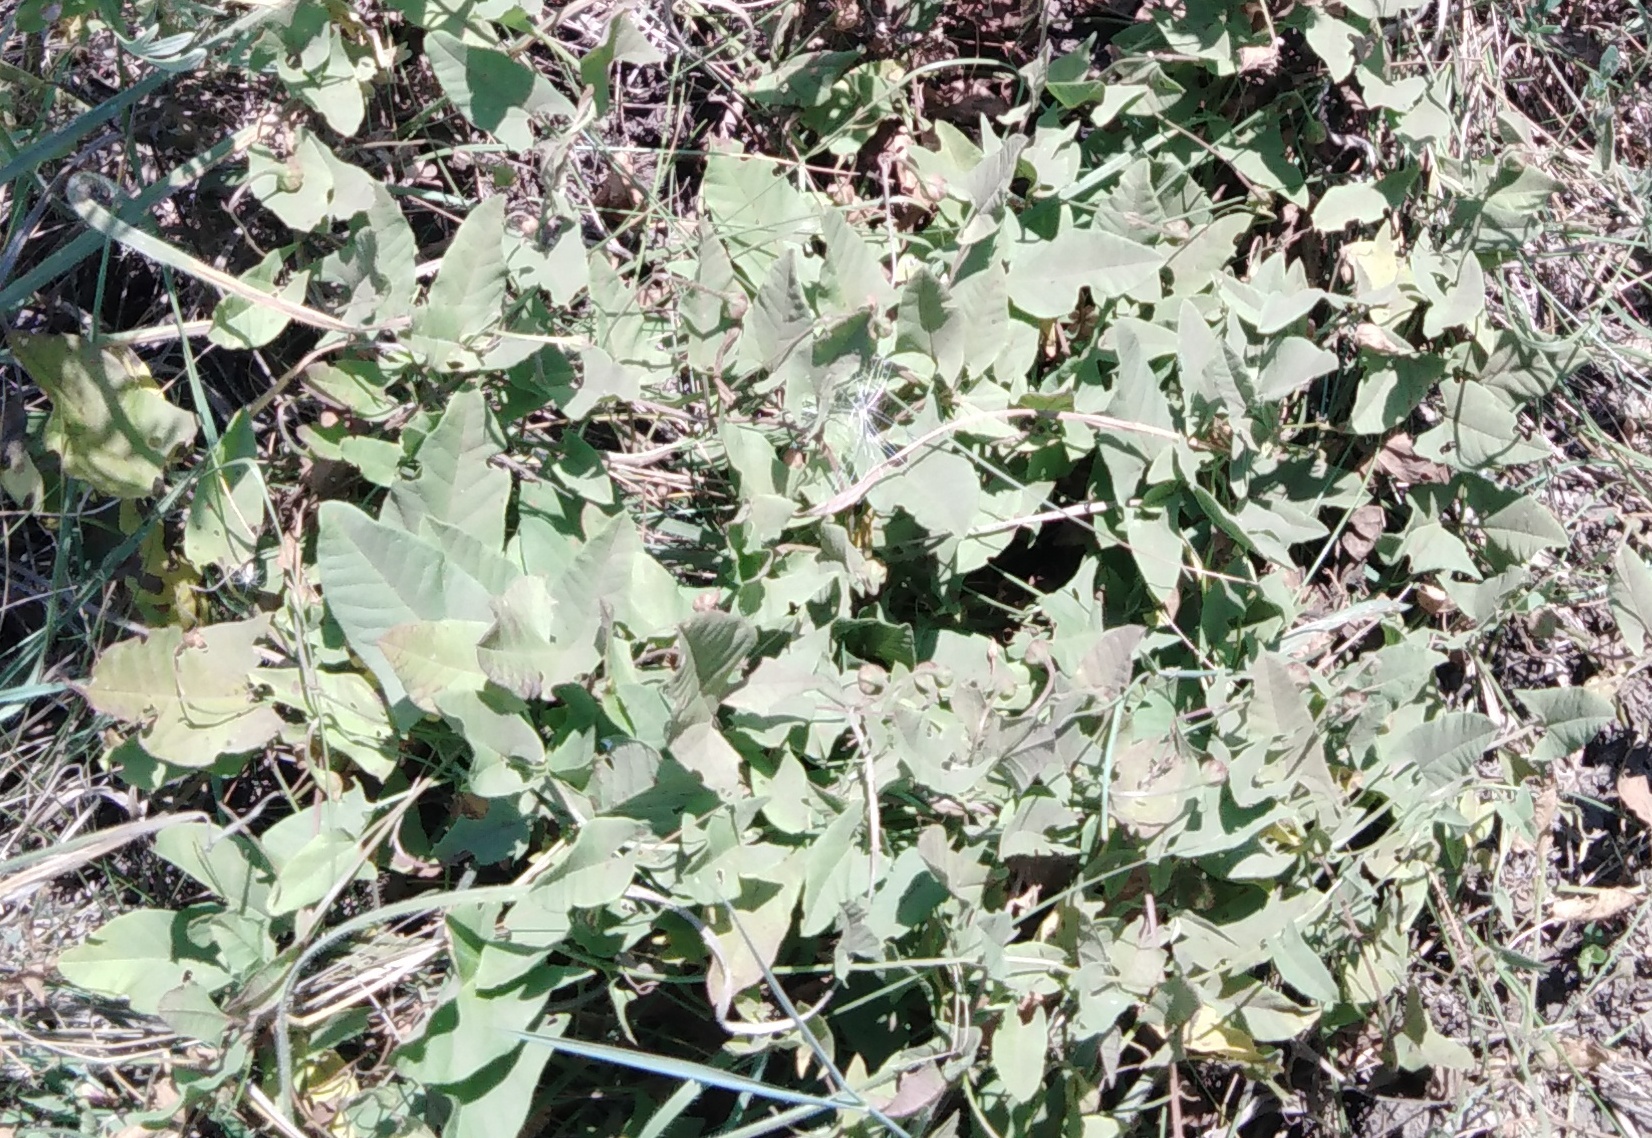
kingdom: Plantae
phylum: Tracheophyta
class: Magnoliopsida
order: Solanales
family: Convolvulaceae
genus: Convolvulus
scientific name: Convolvulus arvensis
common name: Field bindweed
